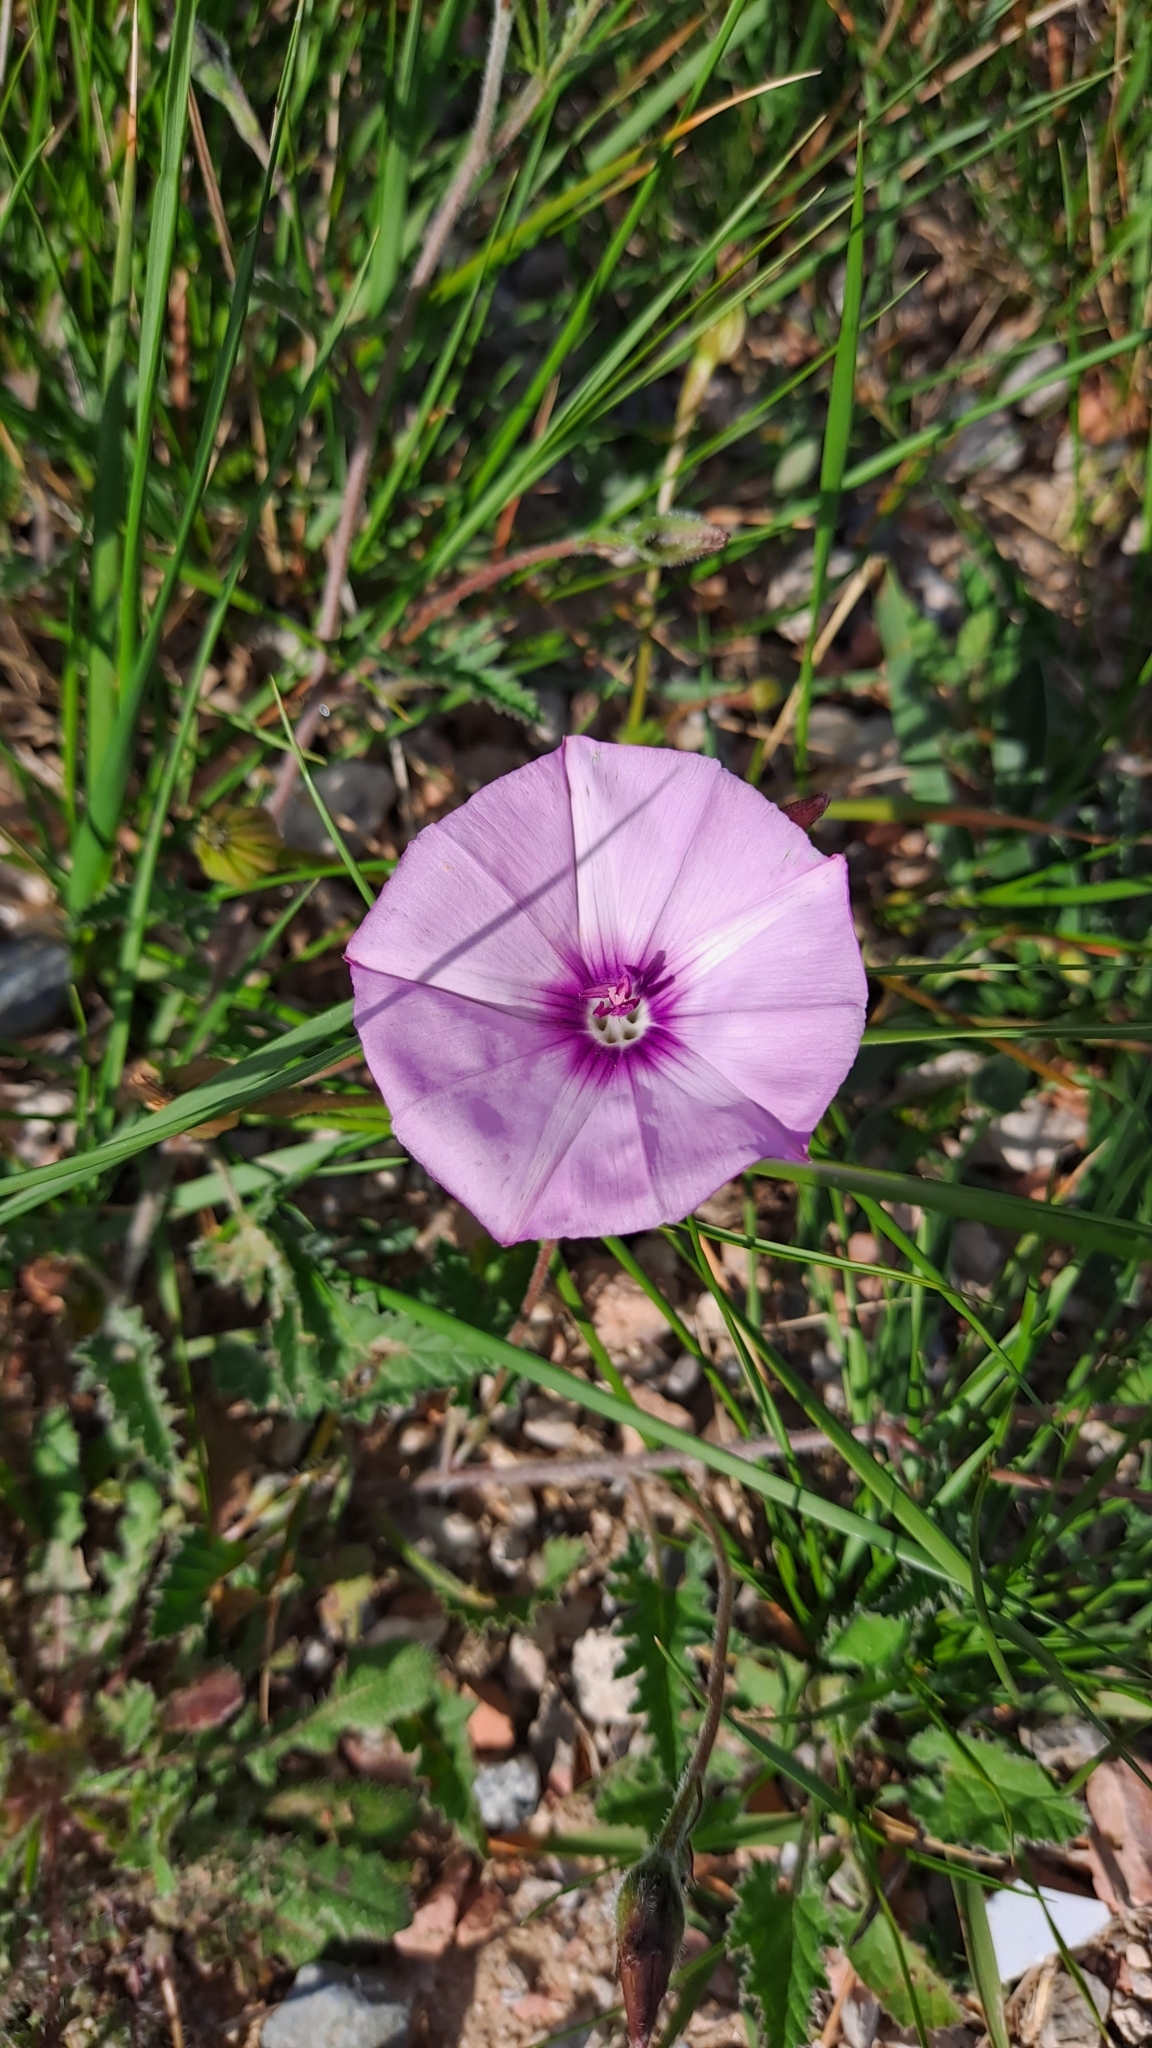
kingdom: Plantae
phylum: Tracheophyta
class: Magnoliopsida
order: Solanales
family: Convolvulaceae
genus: Convolvulus
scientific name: Convolvulus althaeoides
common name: Mallow bindweed
